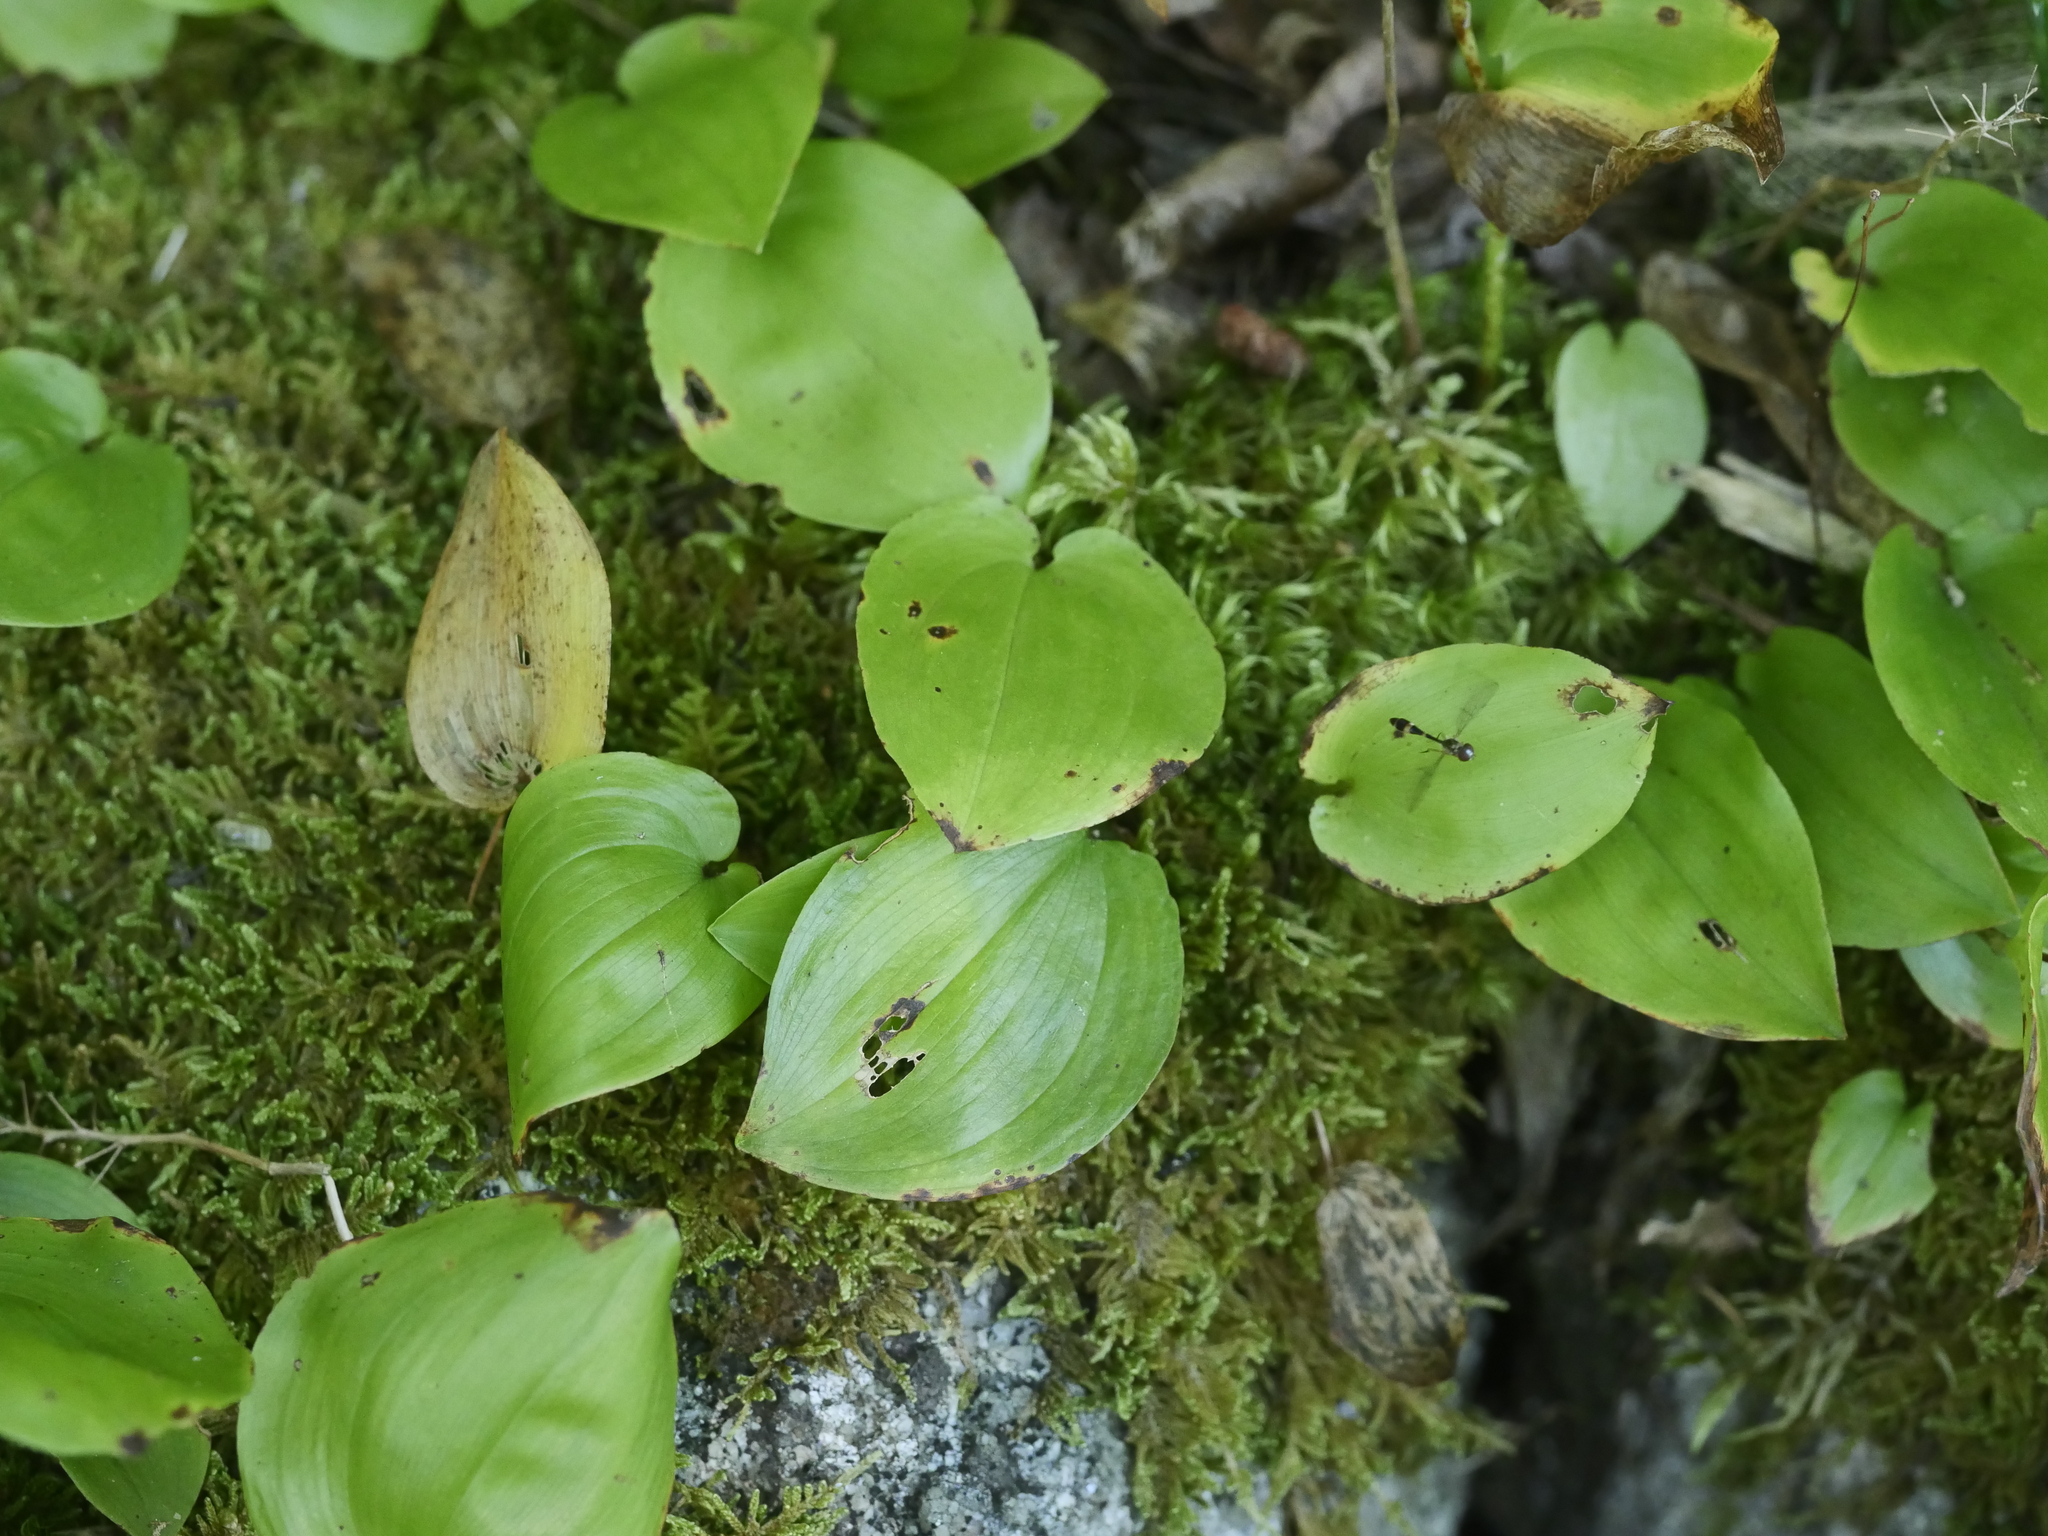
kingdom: Plantae
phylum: Tracheophyta
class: Liliopsida
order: Asparagales
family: Asparagaceae
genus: Maianthemum
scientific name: Maianthemum canadense
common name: False lily-of-the-valley
